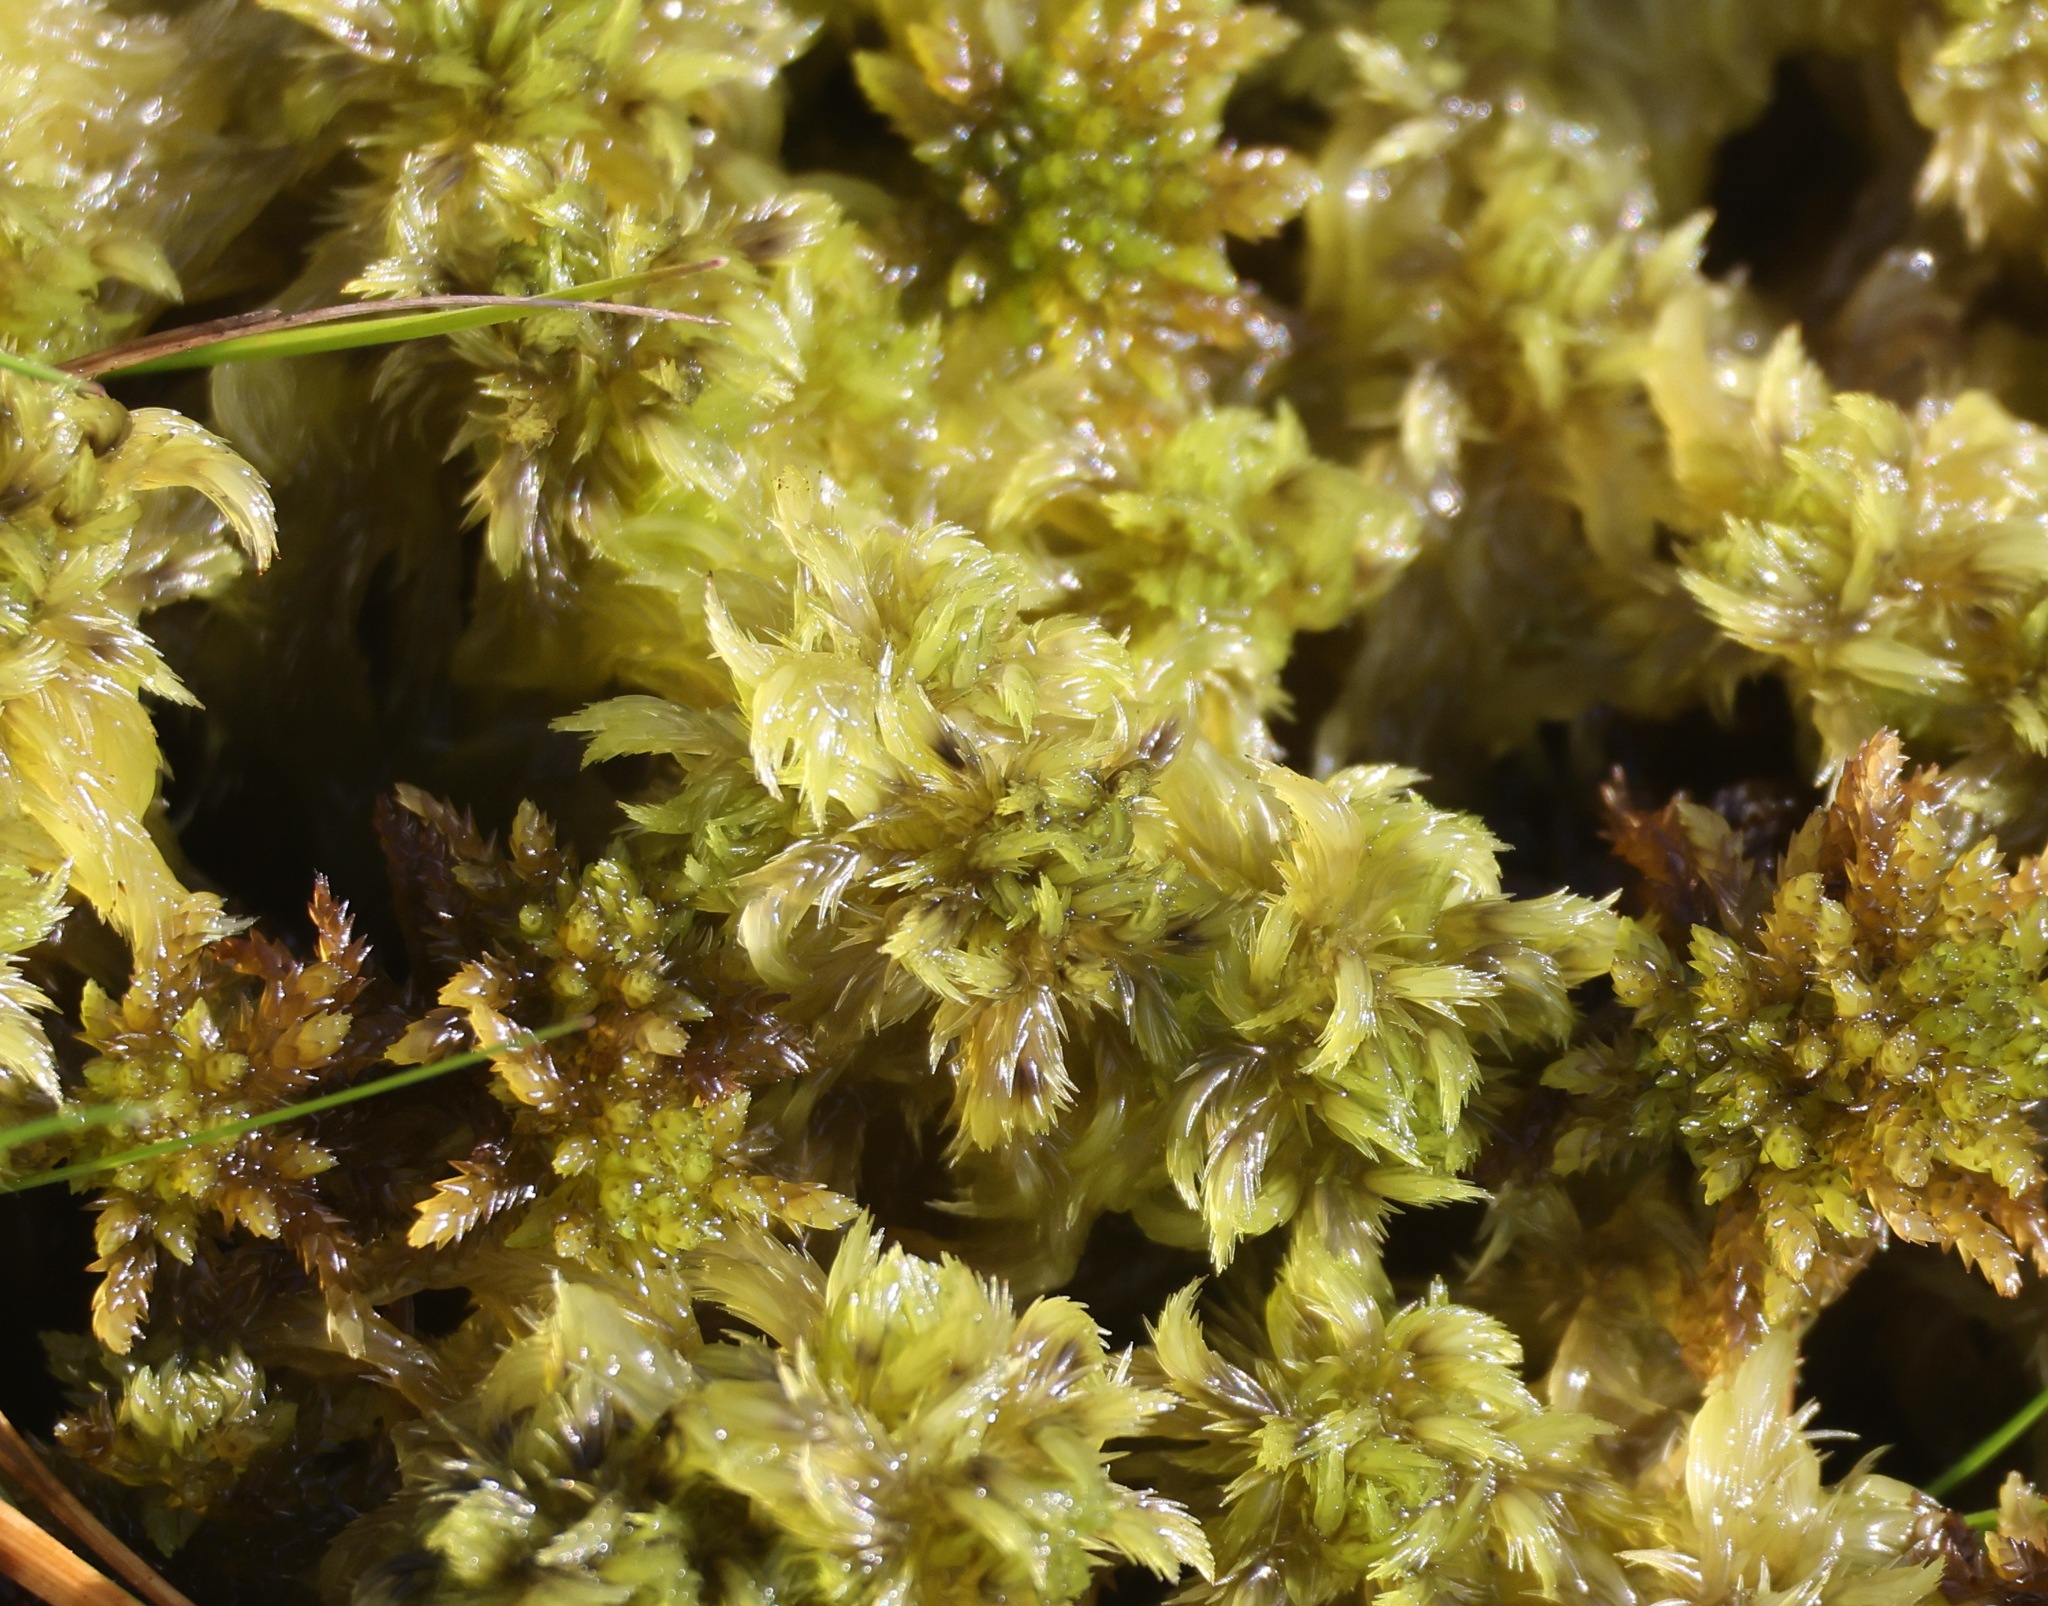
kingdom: Plantae
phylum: Bryophyta
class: Sphagnopsida
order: Sphagnales
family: Sphagnaceae
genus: Sphagnum
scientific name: Sphagnum cuspidatum
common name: Feathery peat moss
